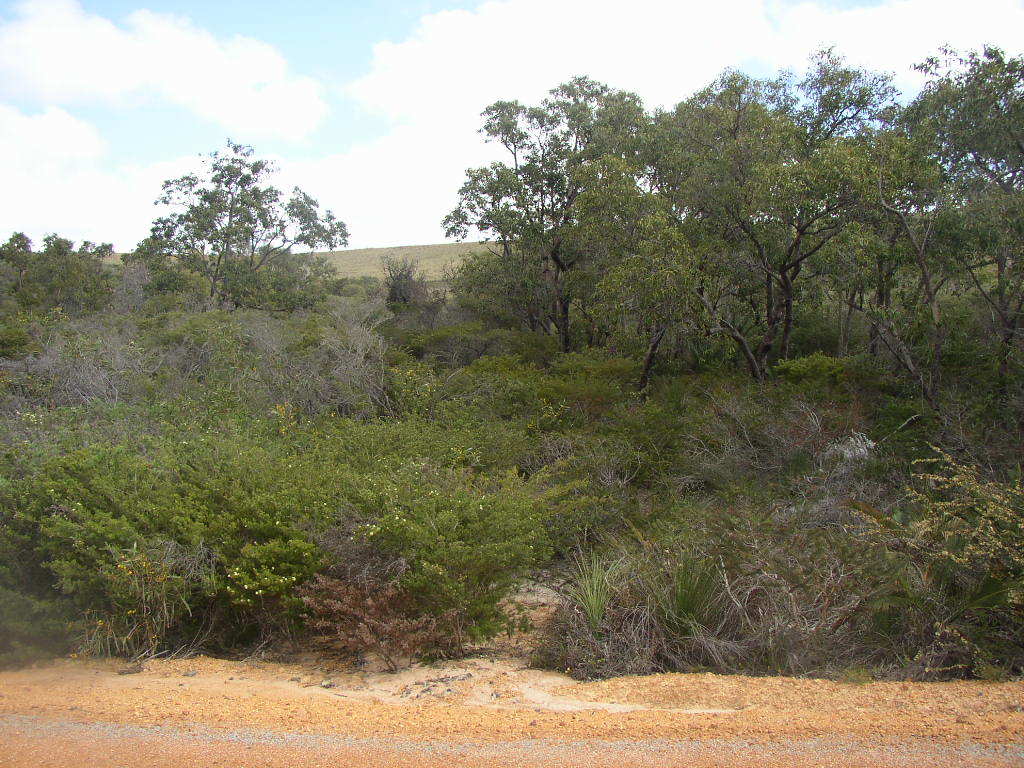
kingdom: Plantae
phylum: Tracheophyta
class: Magnoliopsida
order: Myrtales
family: Myrtaceae
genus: Eucalyptus
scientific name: Eucalyptus todtiana
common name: Coastal blackbutt
